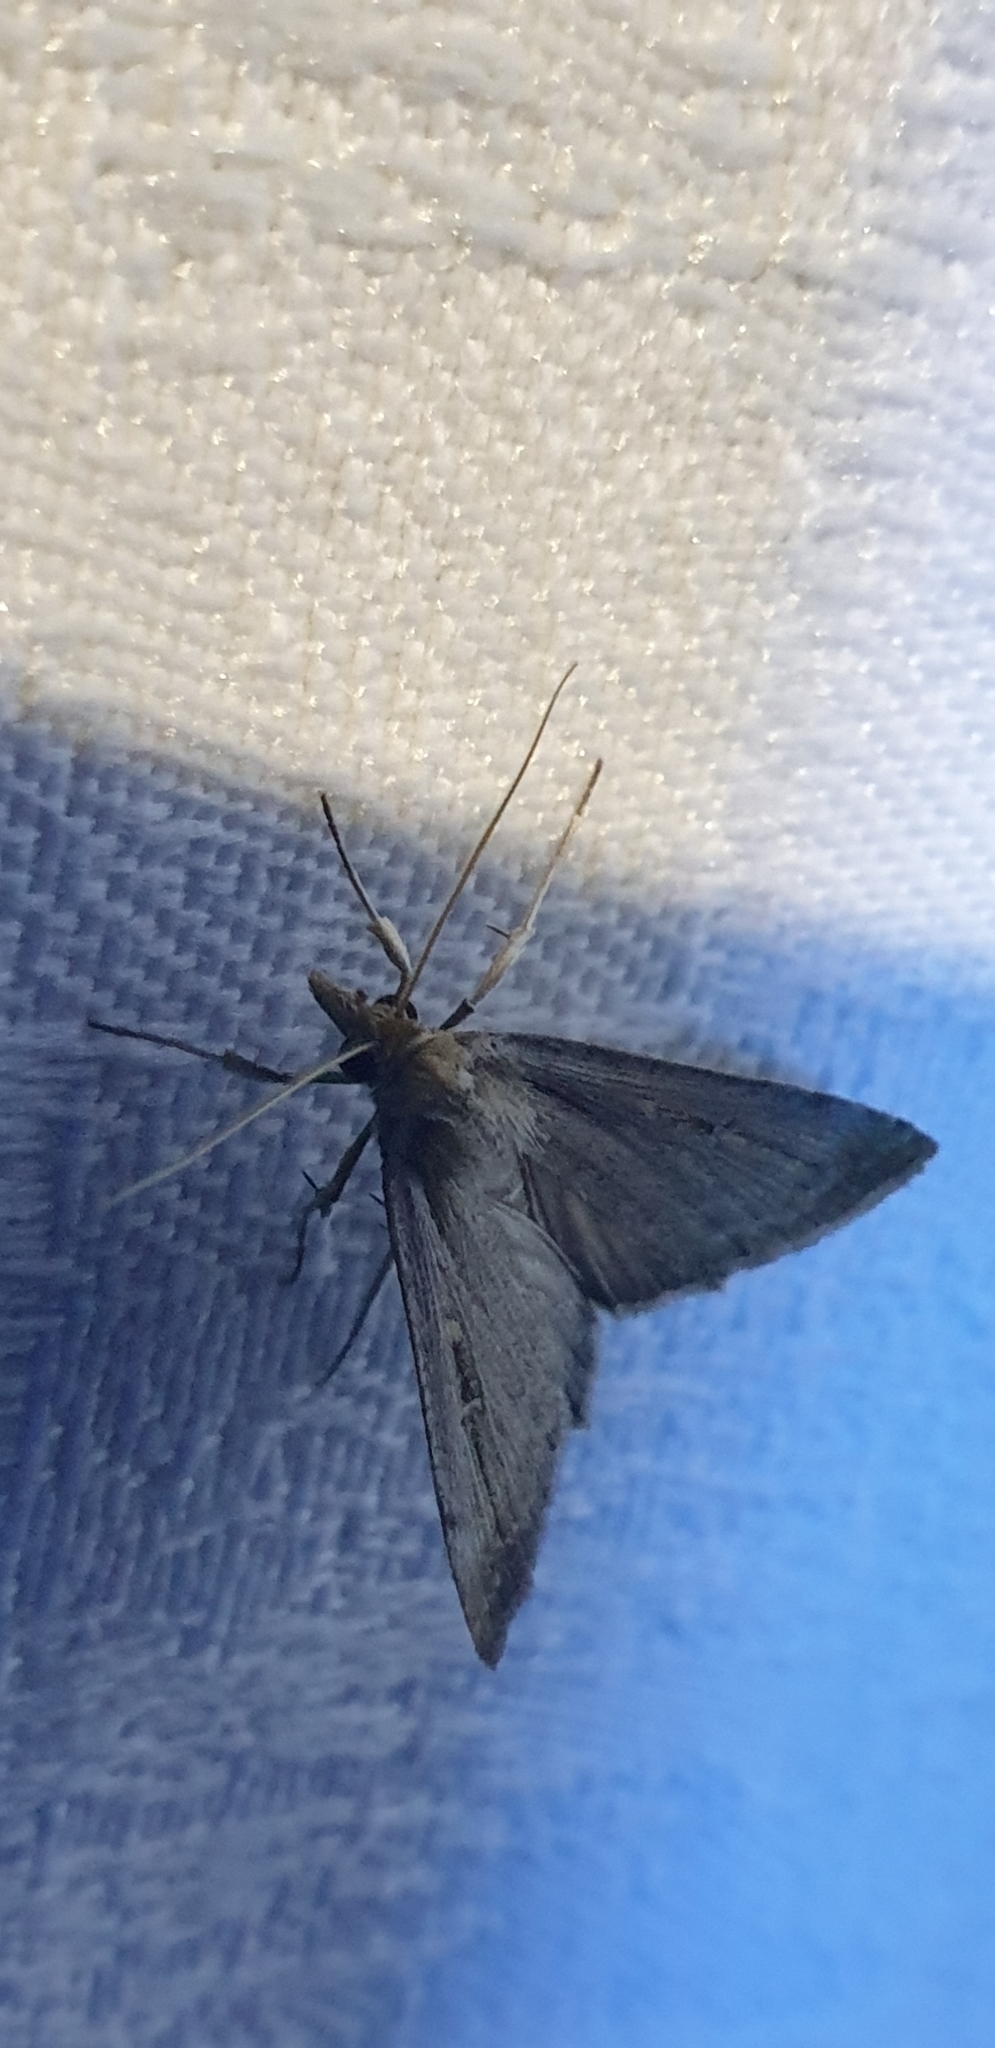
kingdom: Animalia
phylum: Arthropoda
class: Insecta
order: Lepidoptera
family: Noctuidae
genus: Tathorhynchus
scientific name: Tathorhynchus fallax
